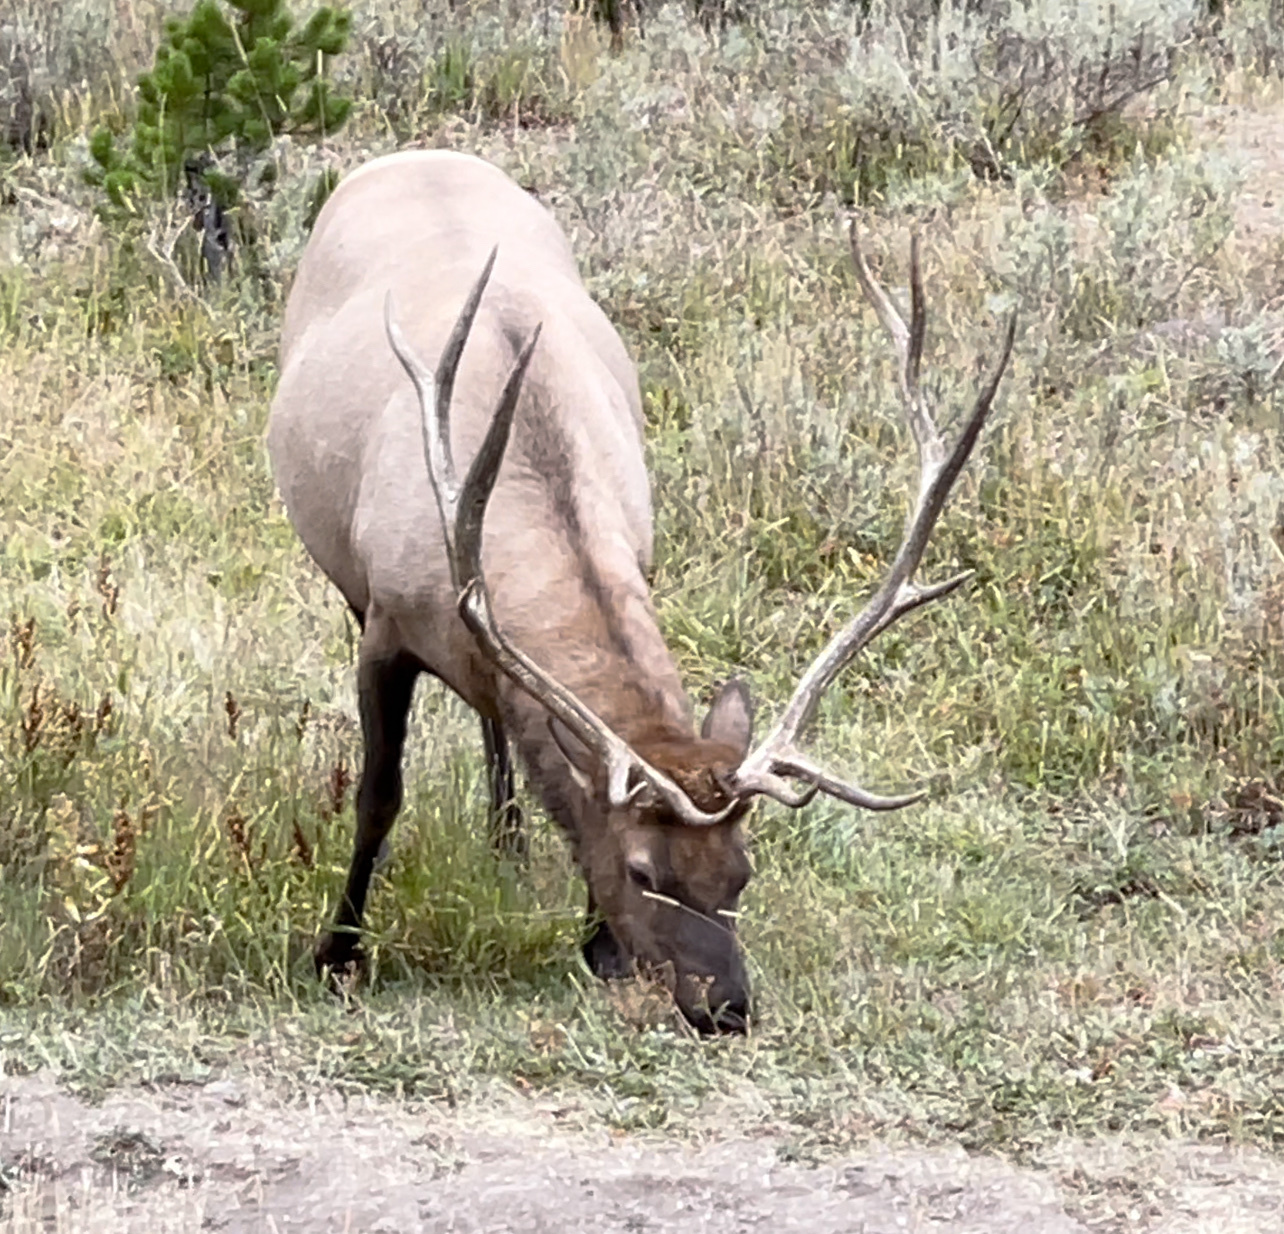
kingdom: Animalia
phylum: Chordata
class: Mammalia
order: Artiodactyla
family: Cervidae
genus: Cervus
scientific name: Cervus elaphus
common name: Red deer
